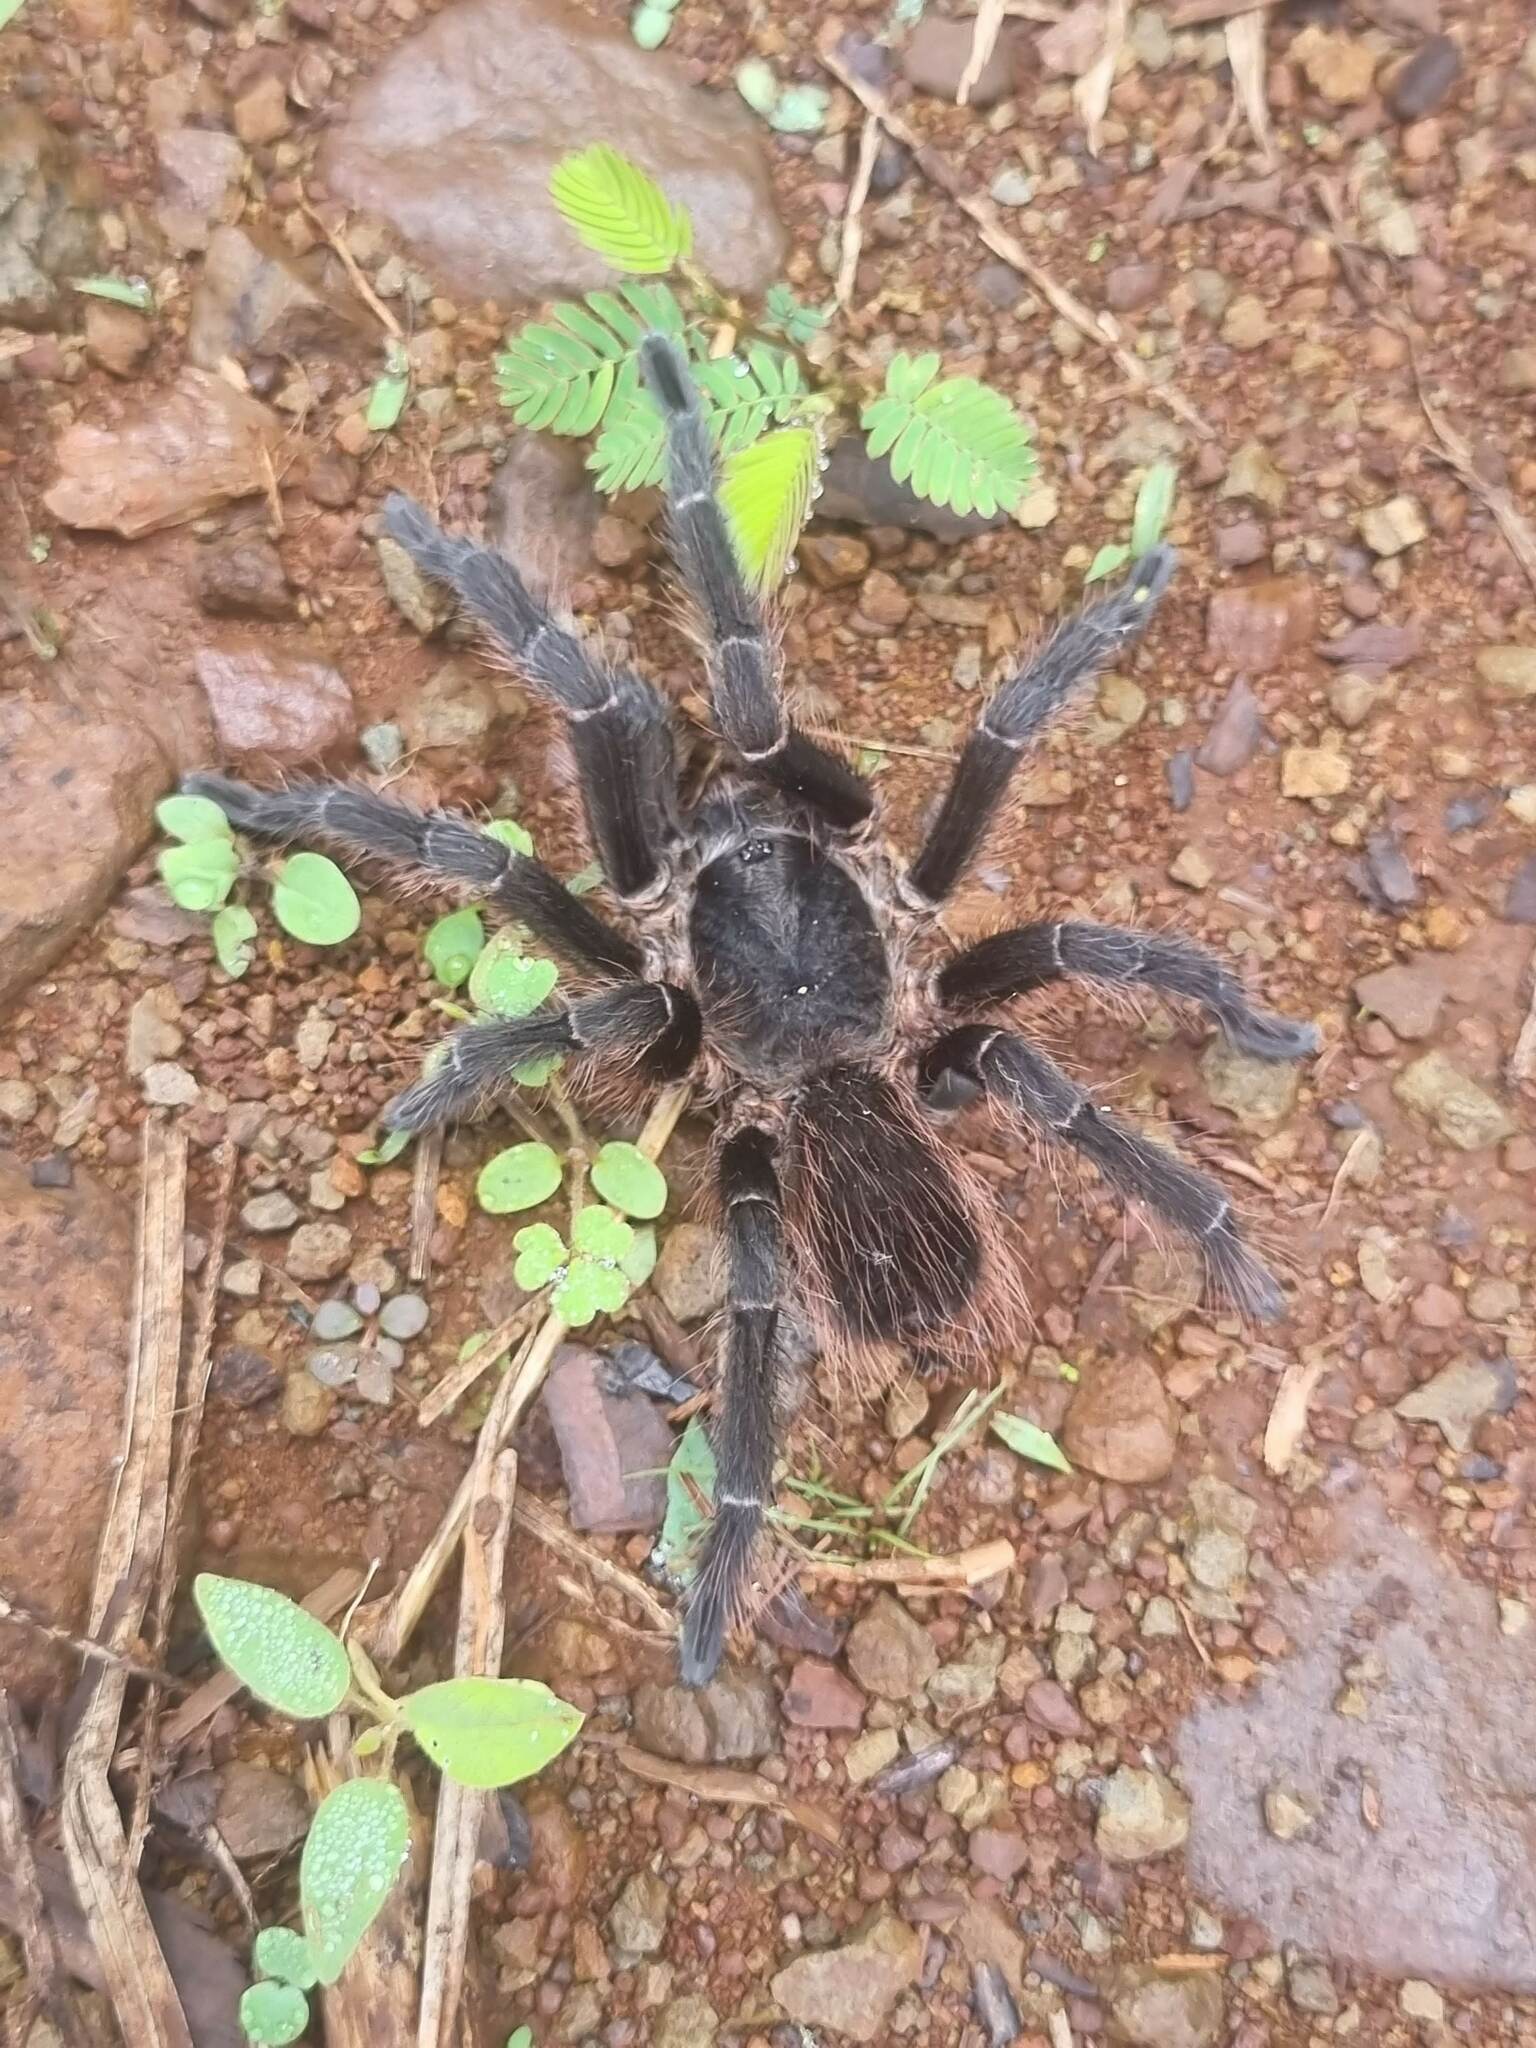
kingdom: Animalia
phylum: Arthropoda
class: Arachnida
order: Araneae
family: Theraphosidae
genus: Pterinopelma
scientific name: Pterinopelma longisternale
